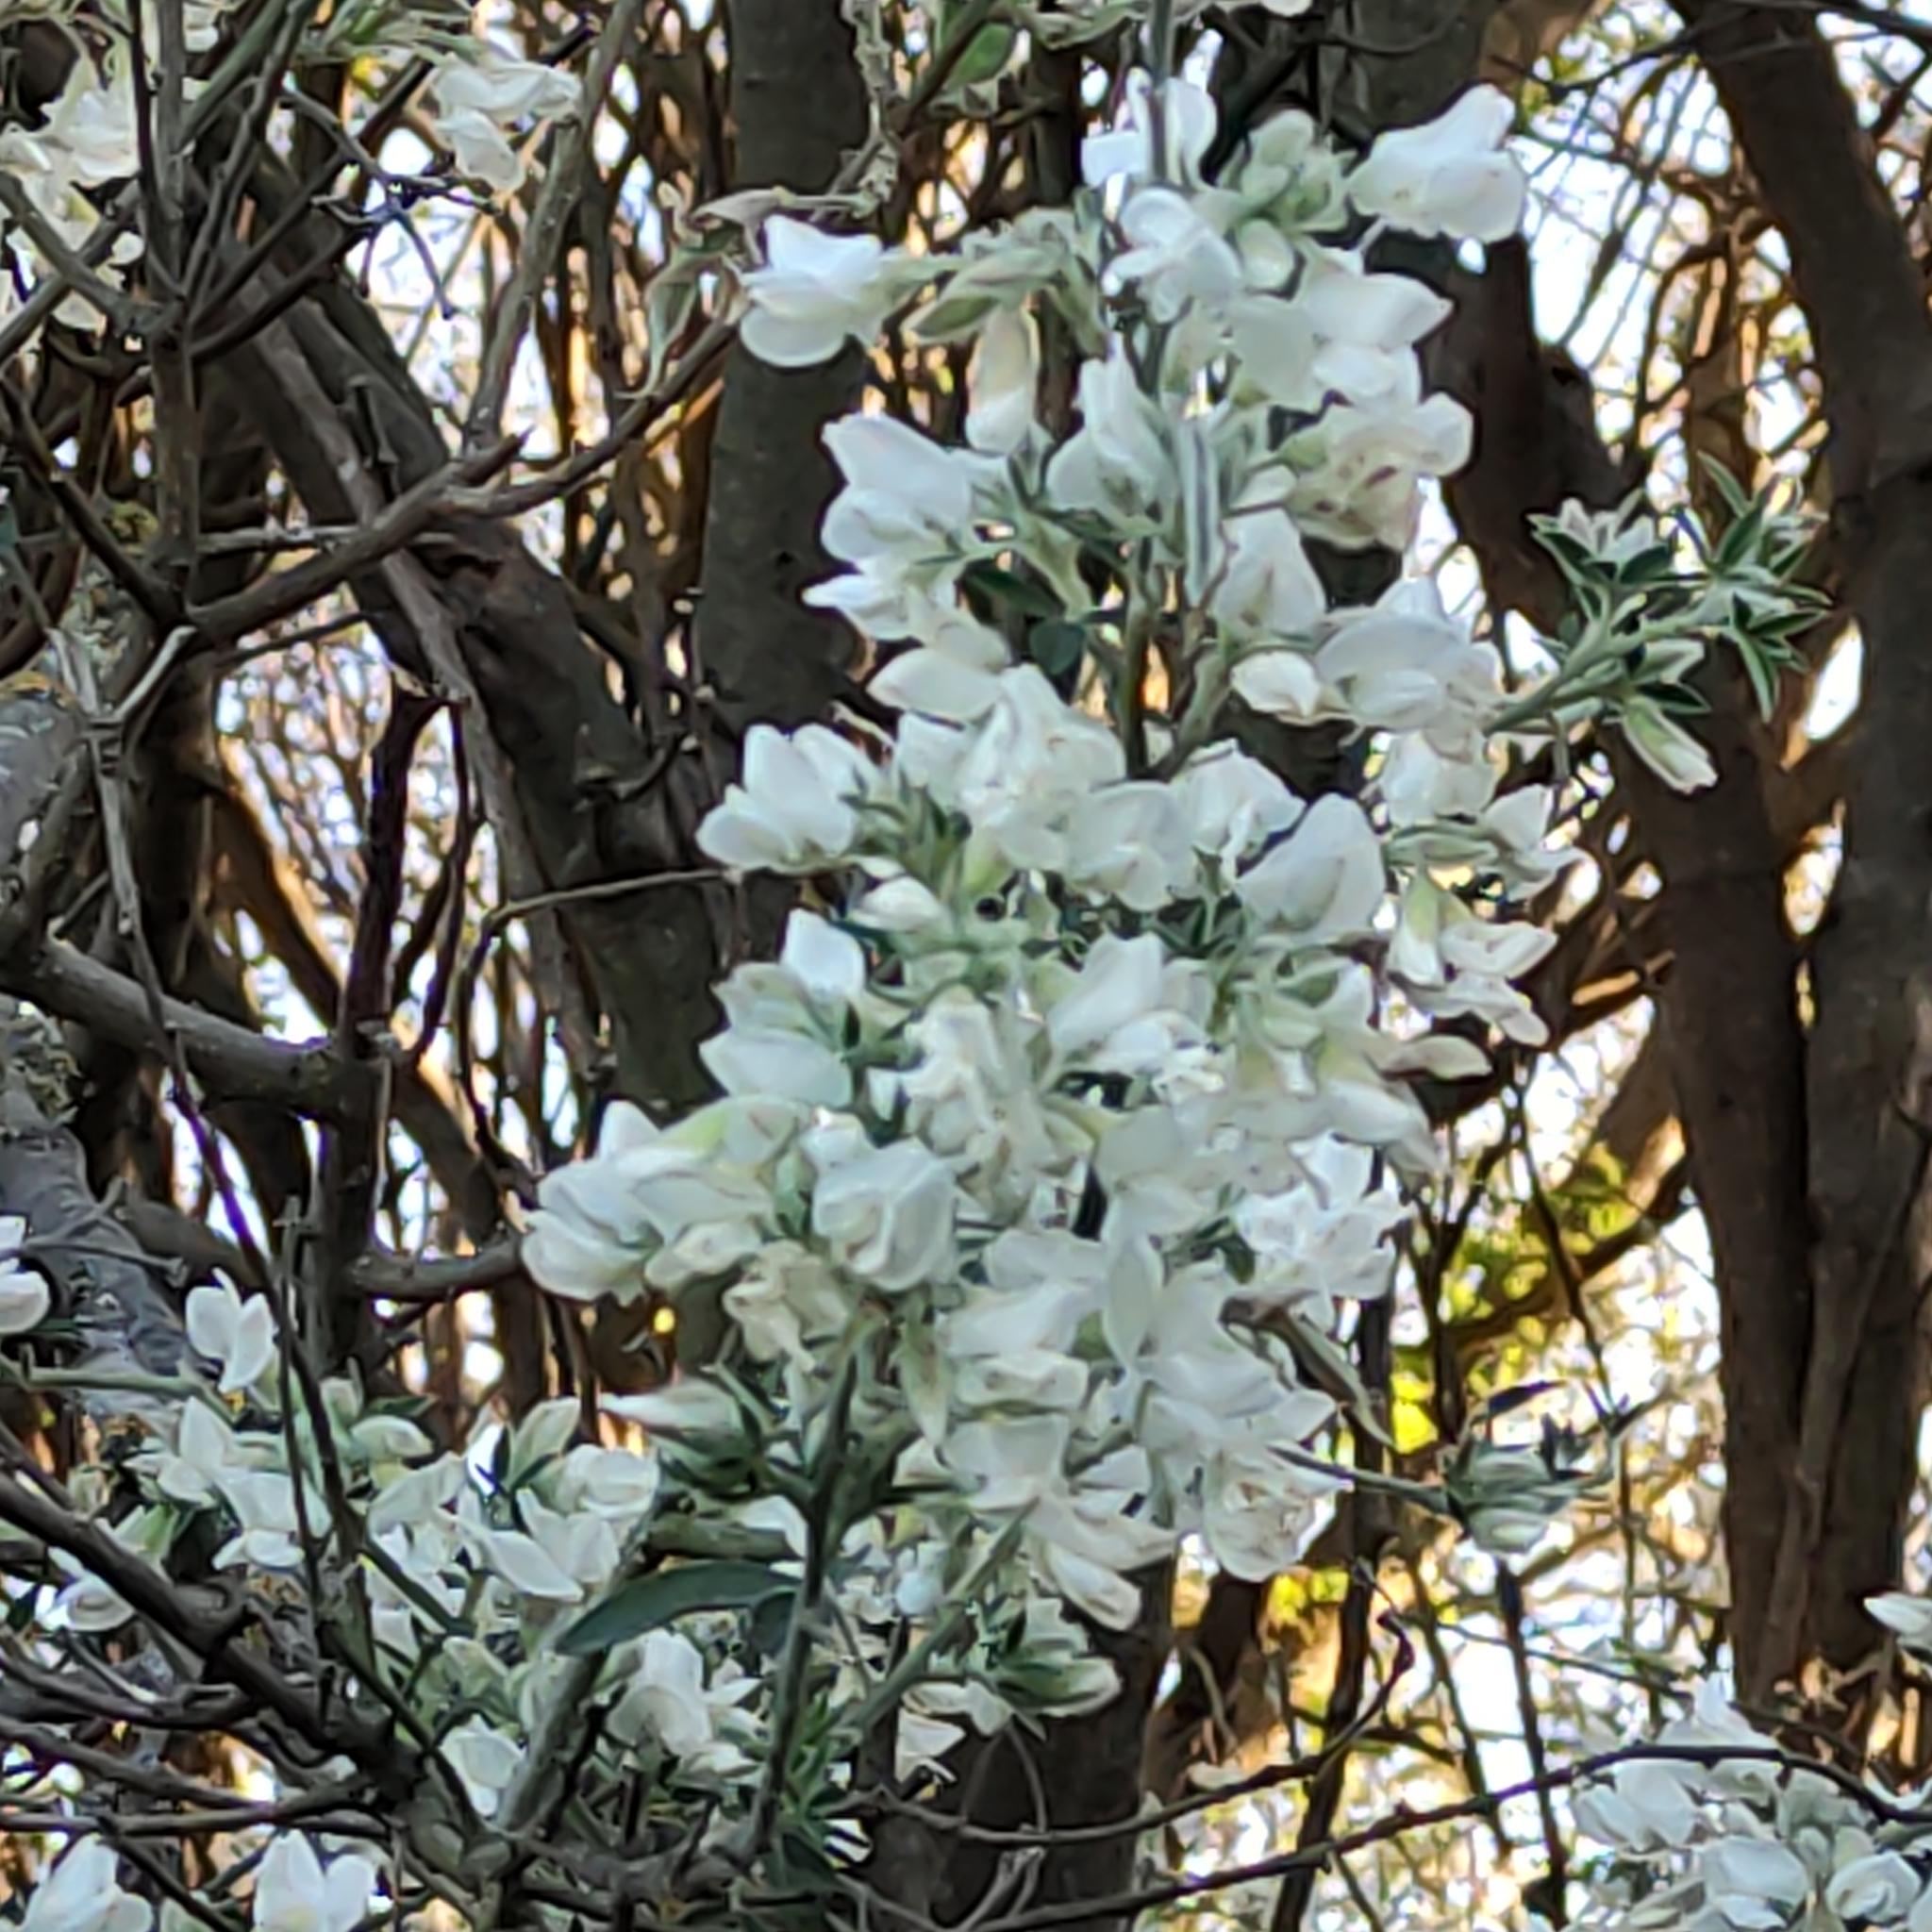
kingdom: Plantae
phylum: Tracheophyta
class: Magnoliopsida
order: Fabales
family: Fabaceae
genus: Chamaecytisus
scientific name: Chamaecytisus prolifer
